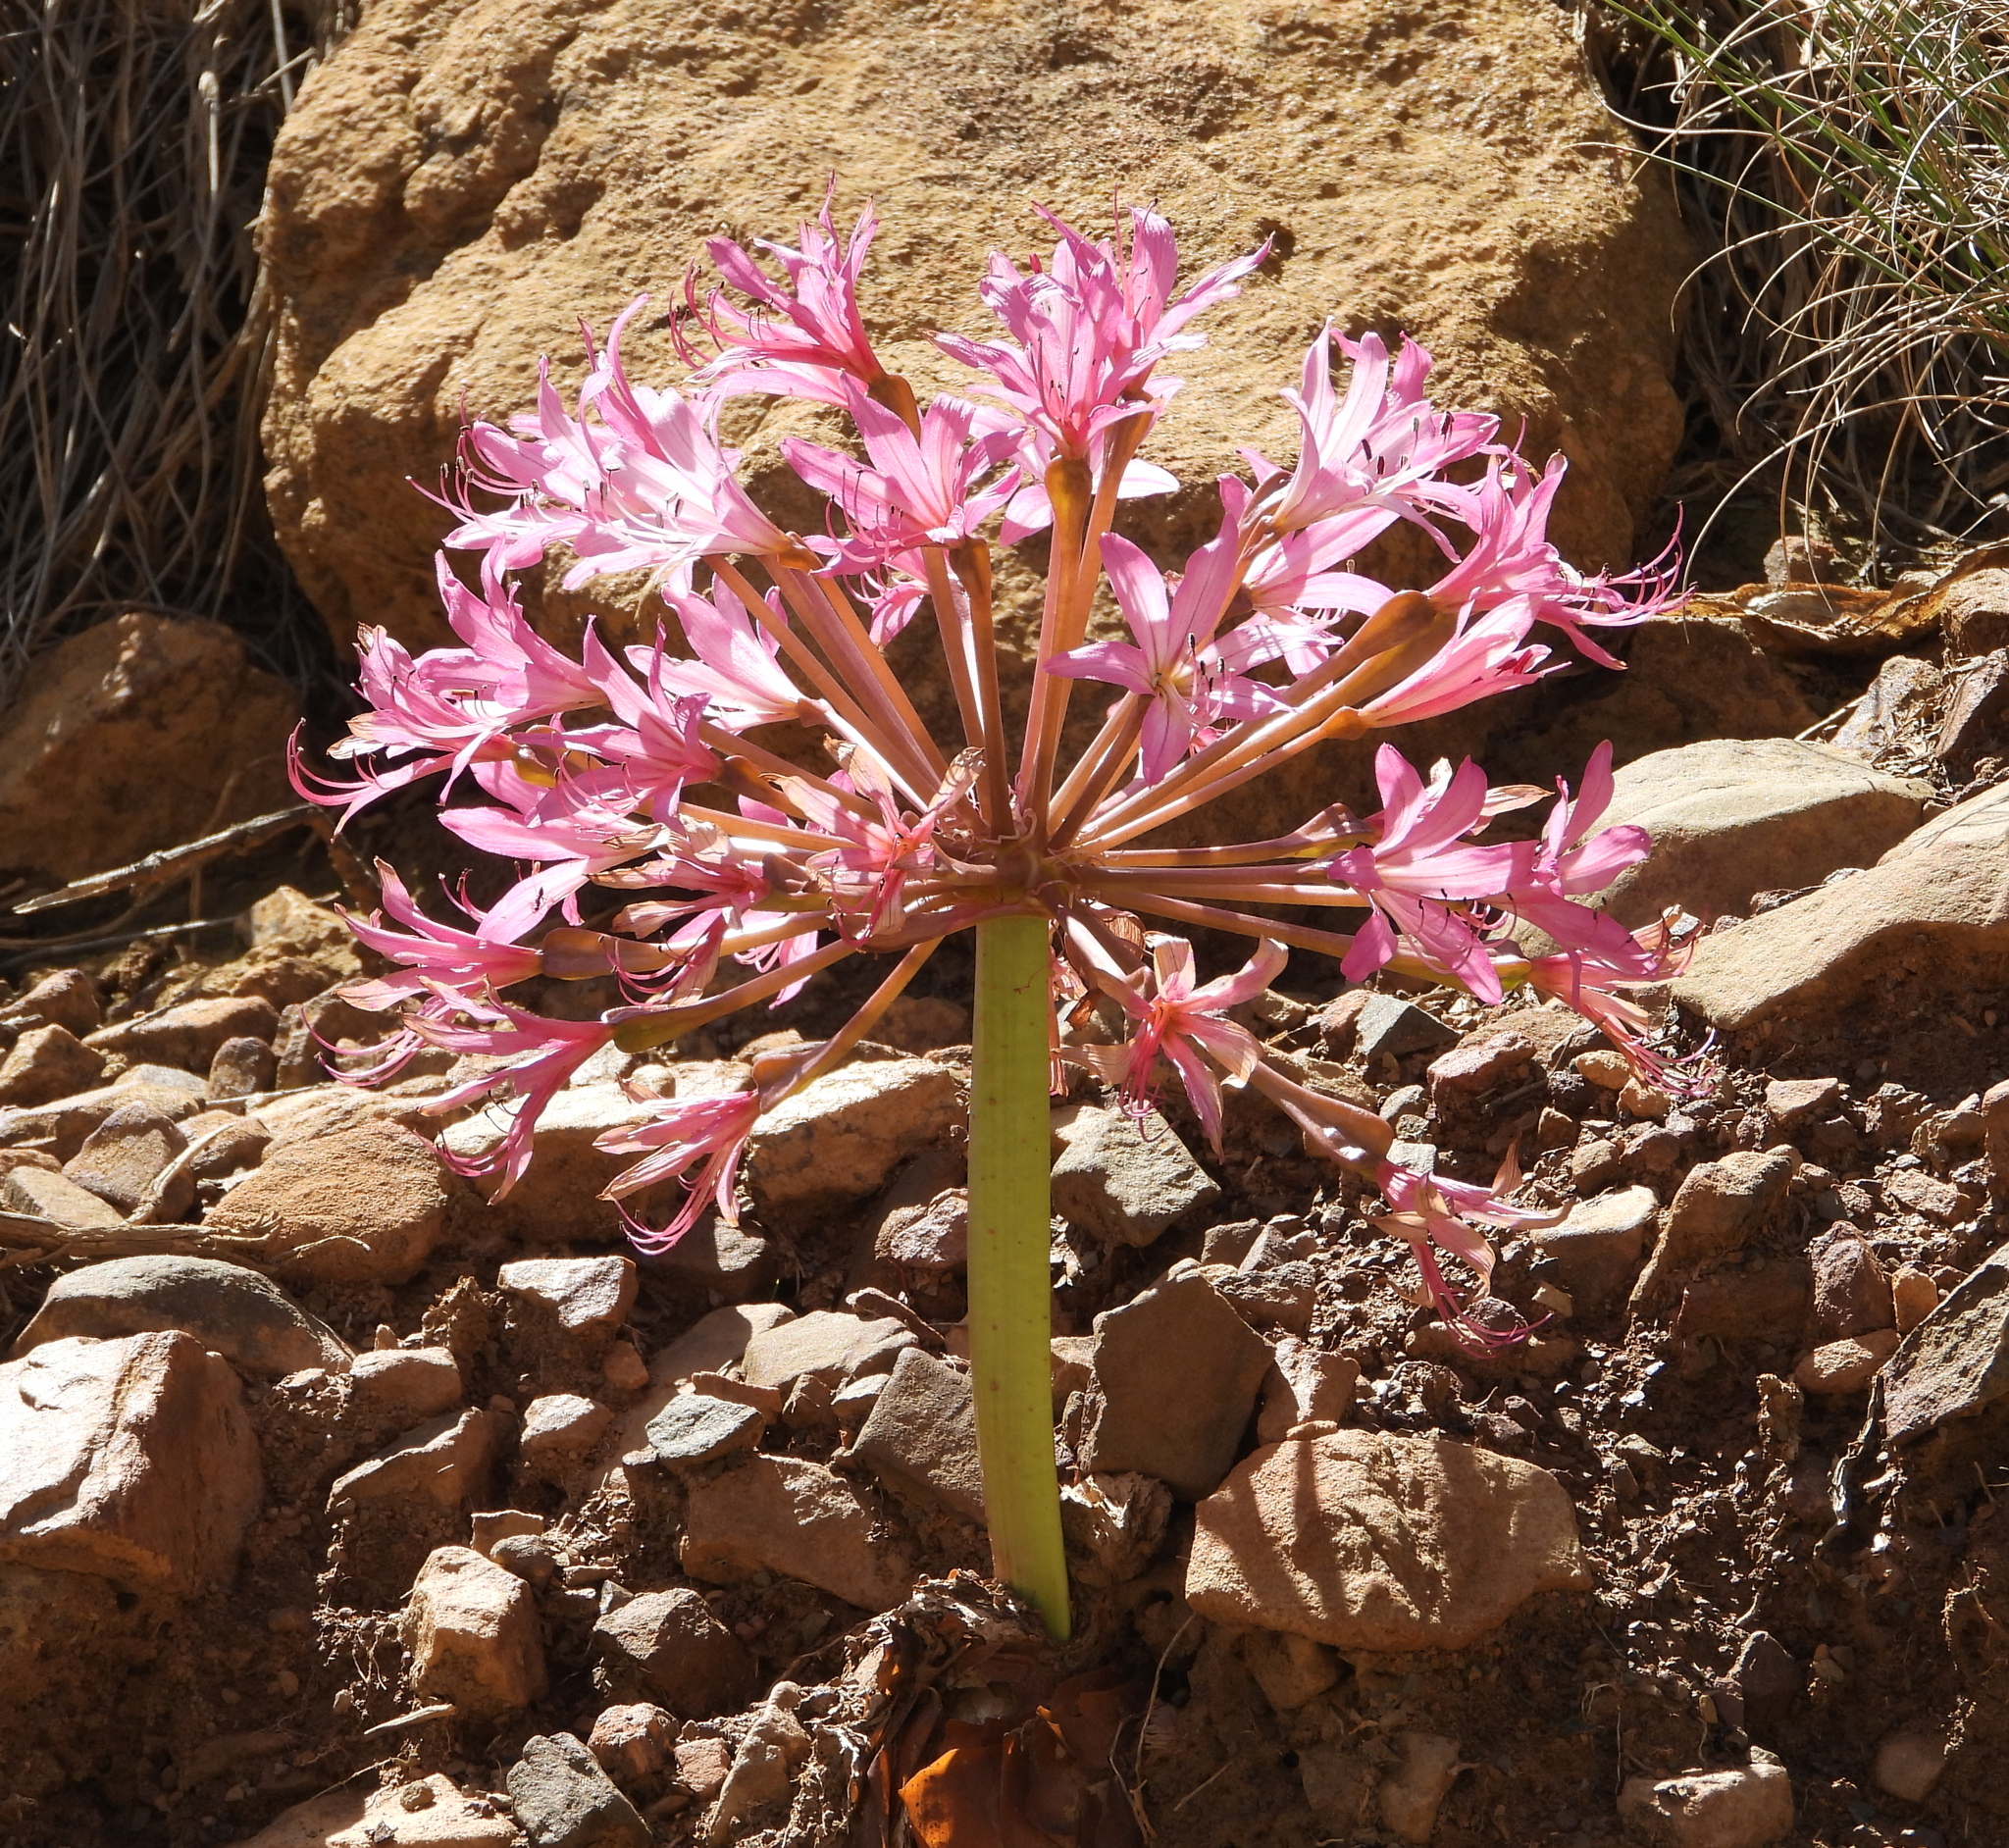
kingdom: Plantae
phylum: Tracheophyta
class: Liliopsida
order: Asparagales
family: Amaryllidaceae
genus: Brunsvigia
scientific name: Brunsvigia bosmaniae
